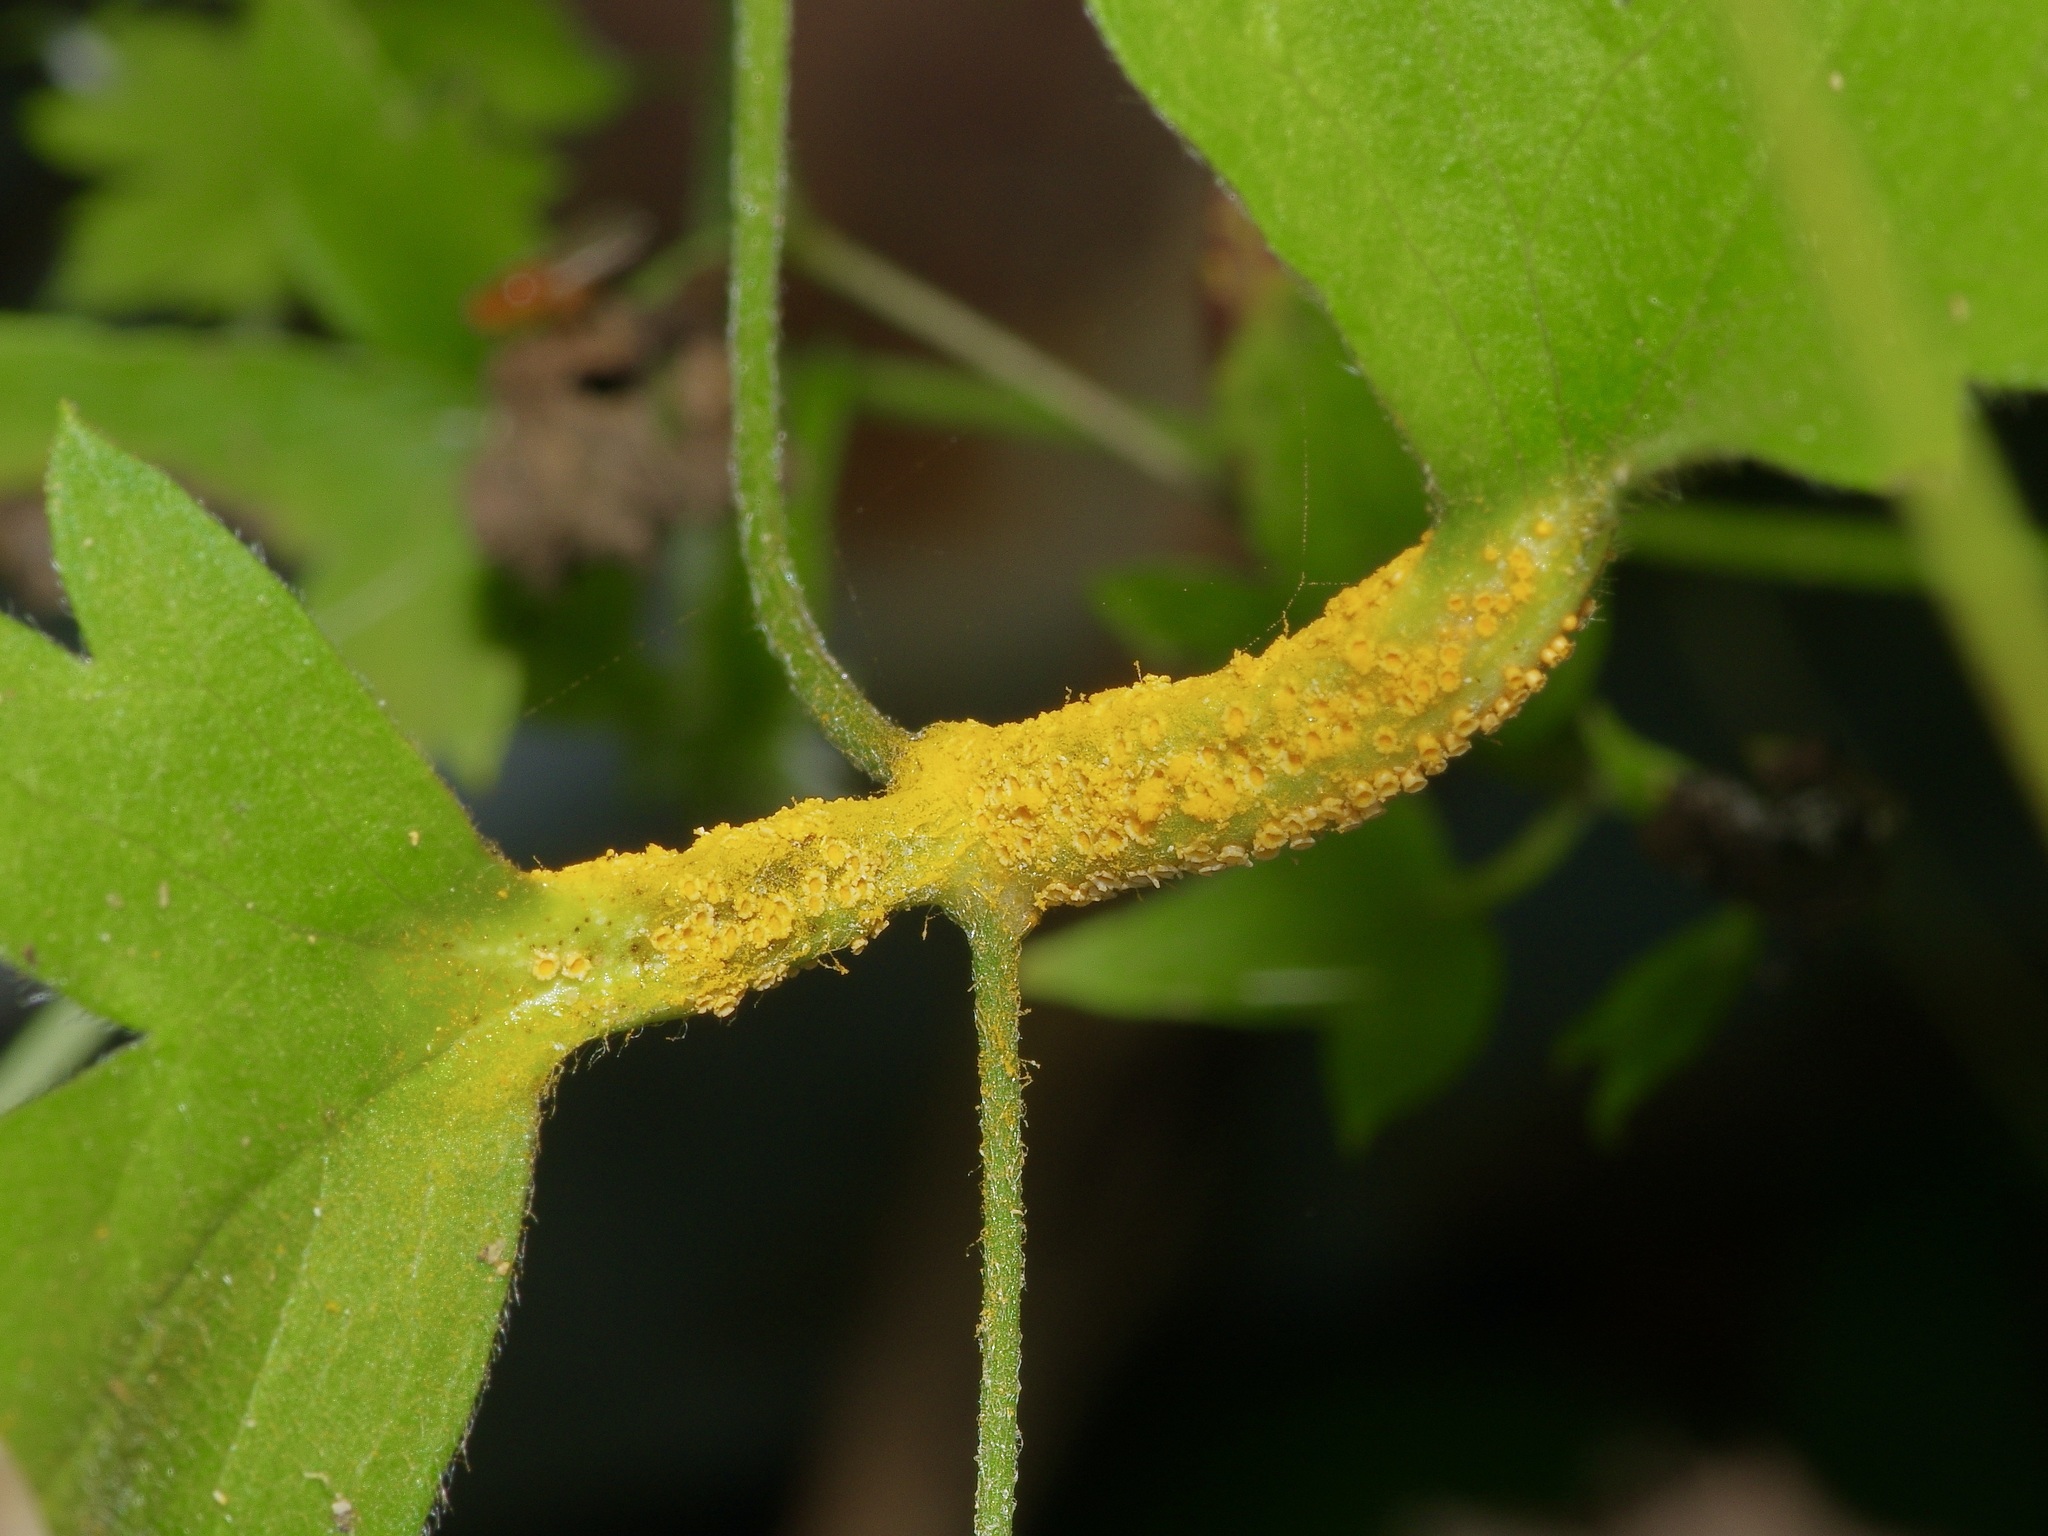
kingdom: Fungi
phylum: Basidiomycota
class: Pucciniomycetes
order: Pucciniales
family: Pucciniaceae
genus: Puccinia
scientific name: Puccinia recondita
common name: Brown rust of wheat
